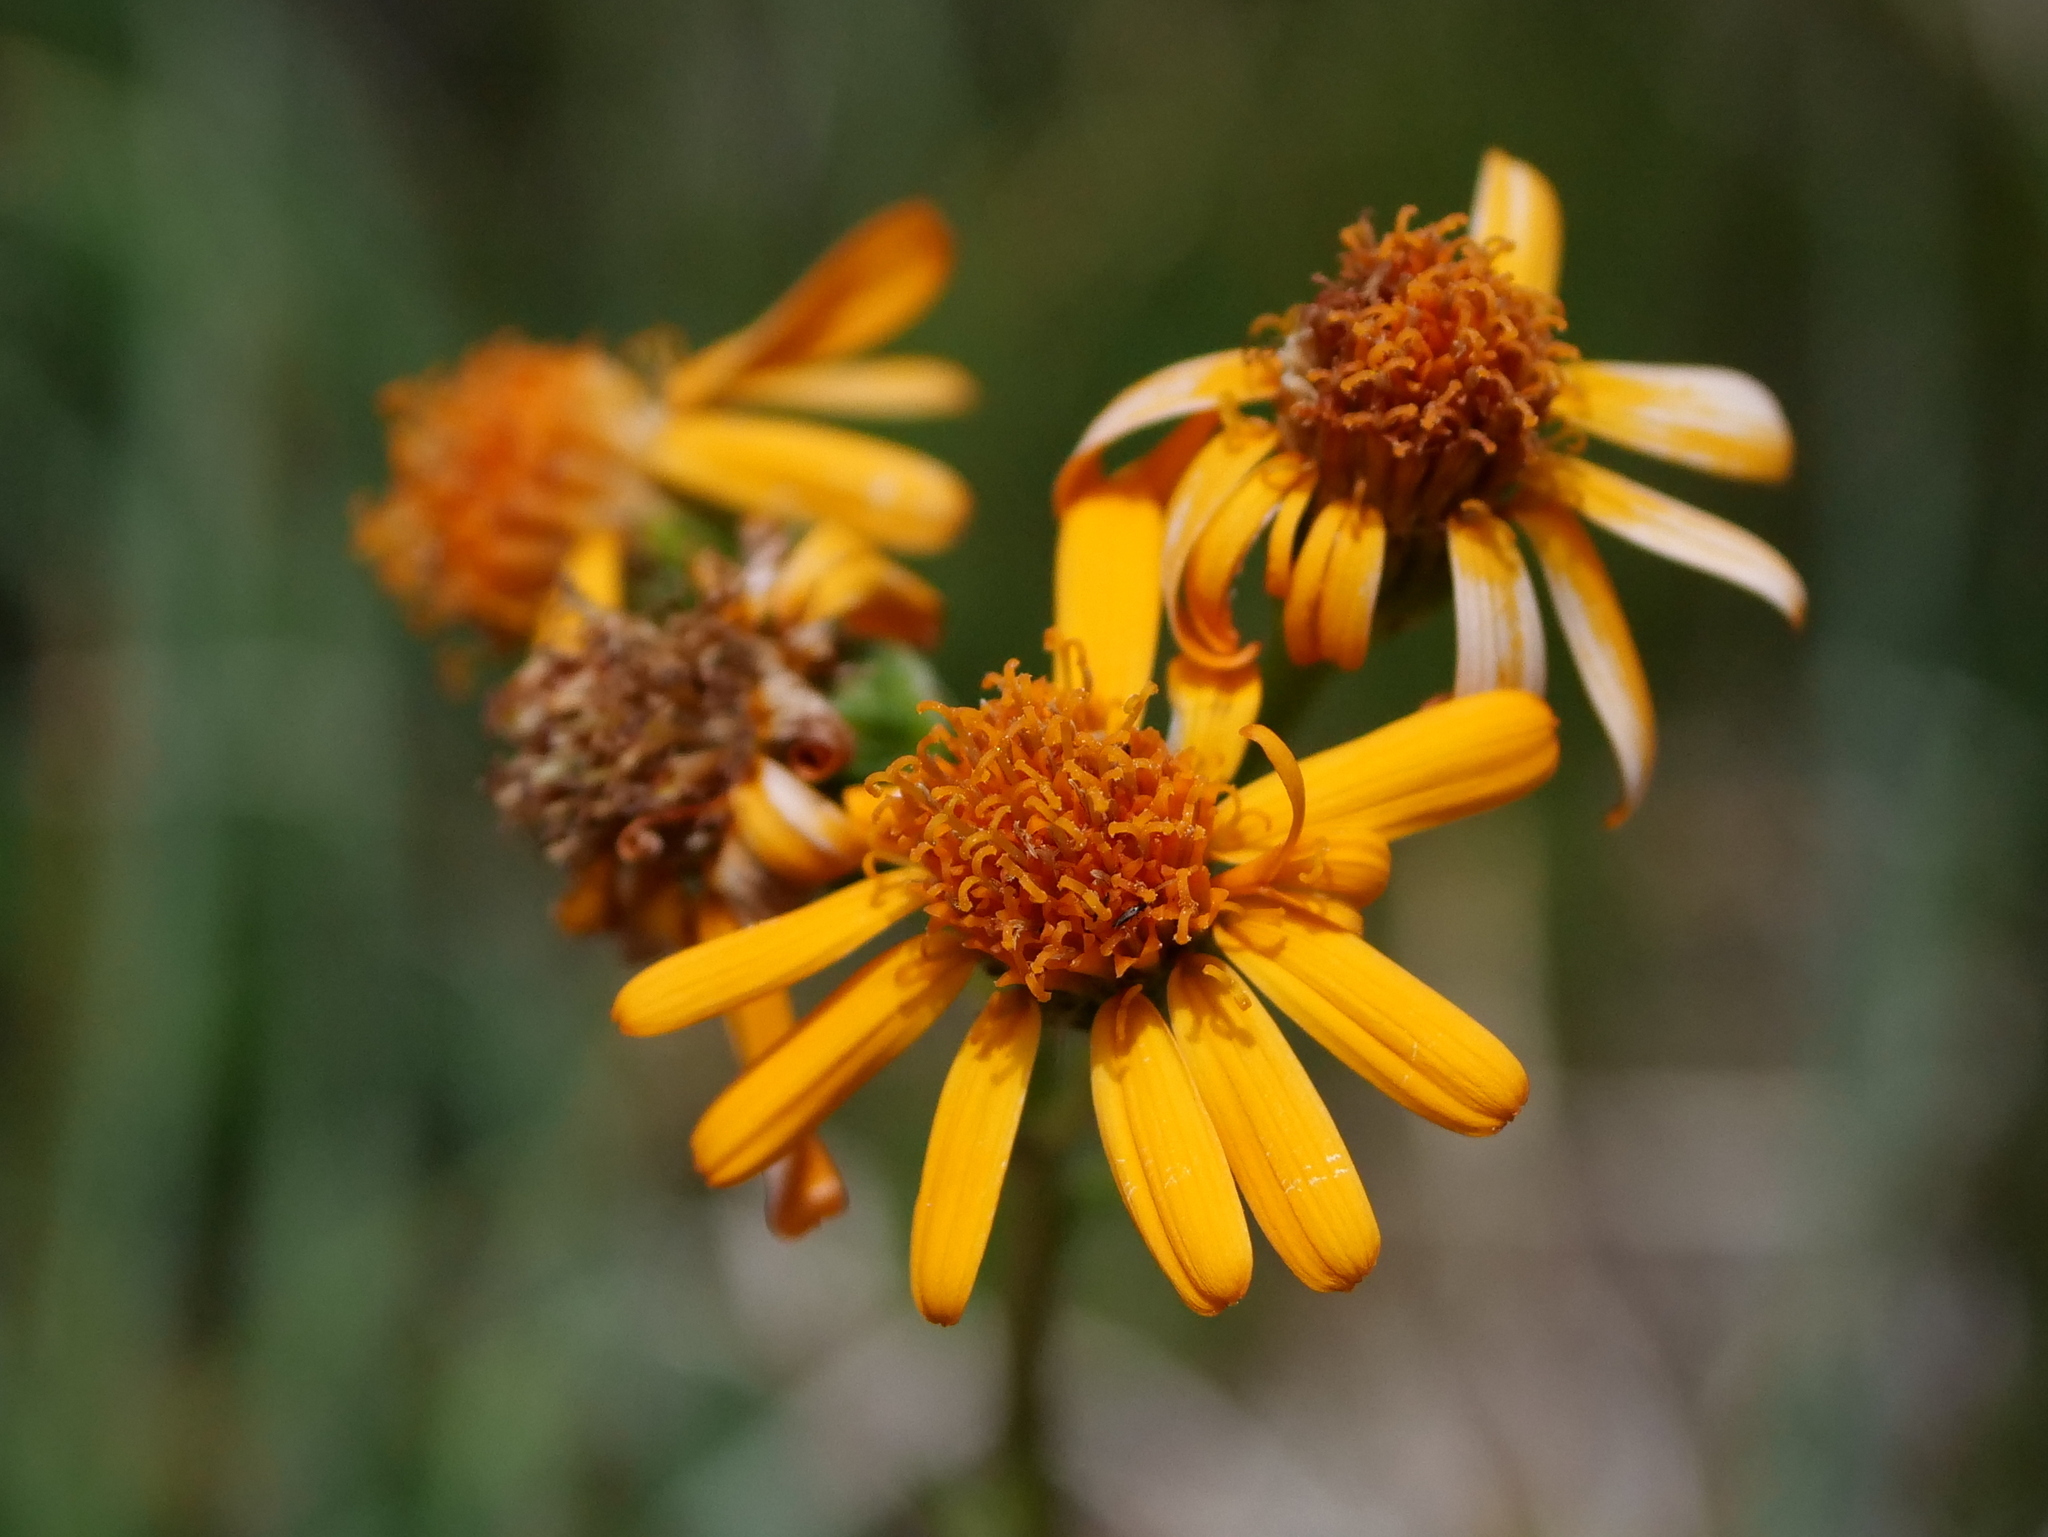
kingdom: Plantae
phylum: Tracheophyta
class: Magnoliopsida
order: Asterales
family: Asteraceae
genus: Jacobaea
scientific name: Jacobaea abrotanifolia
